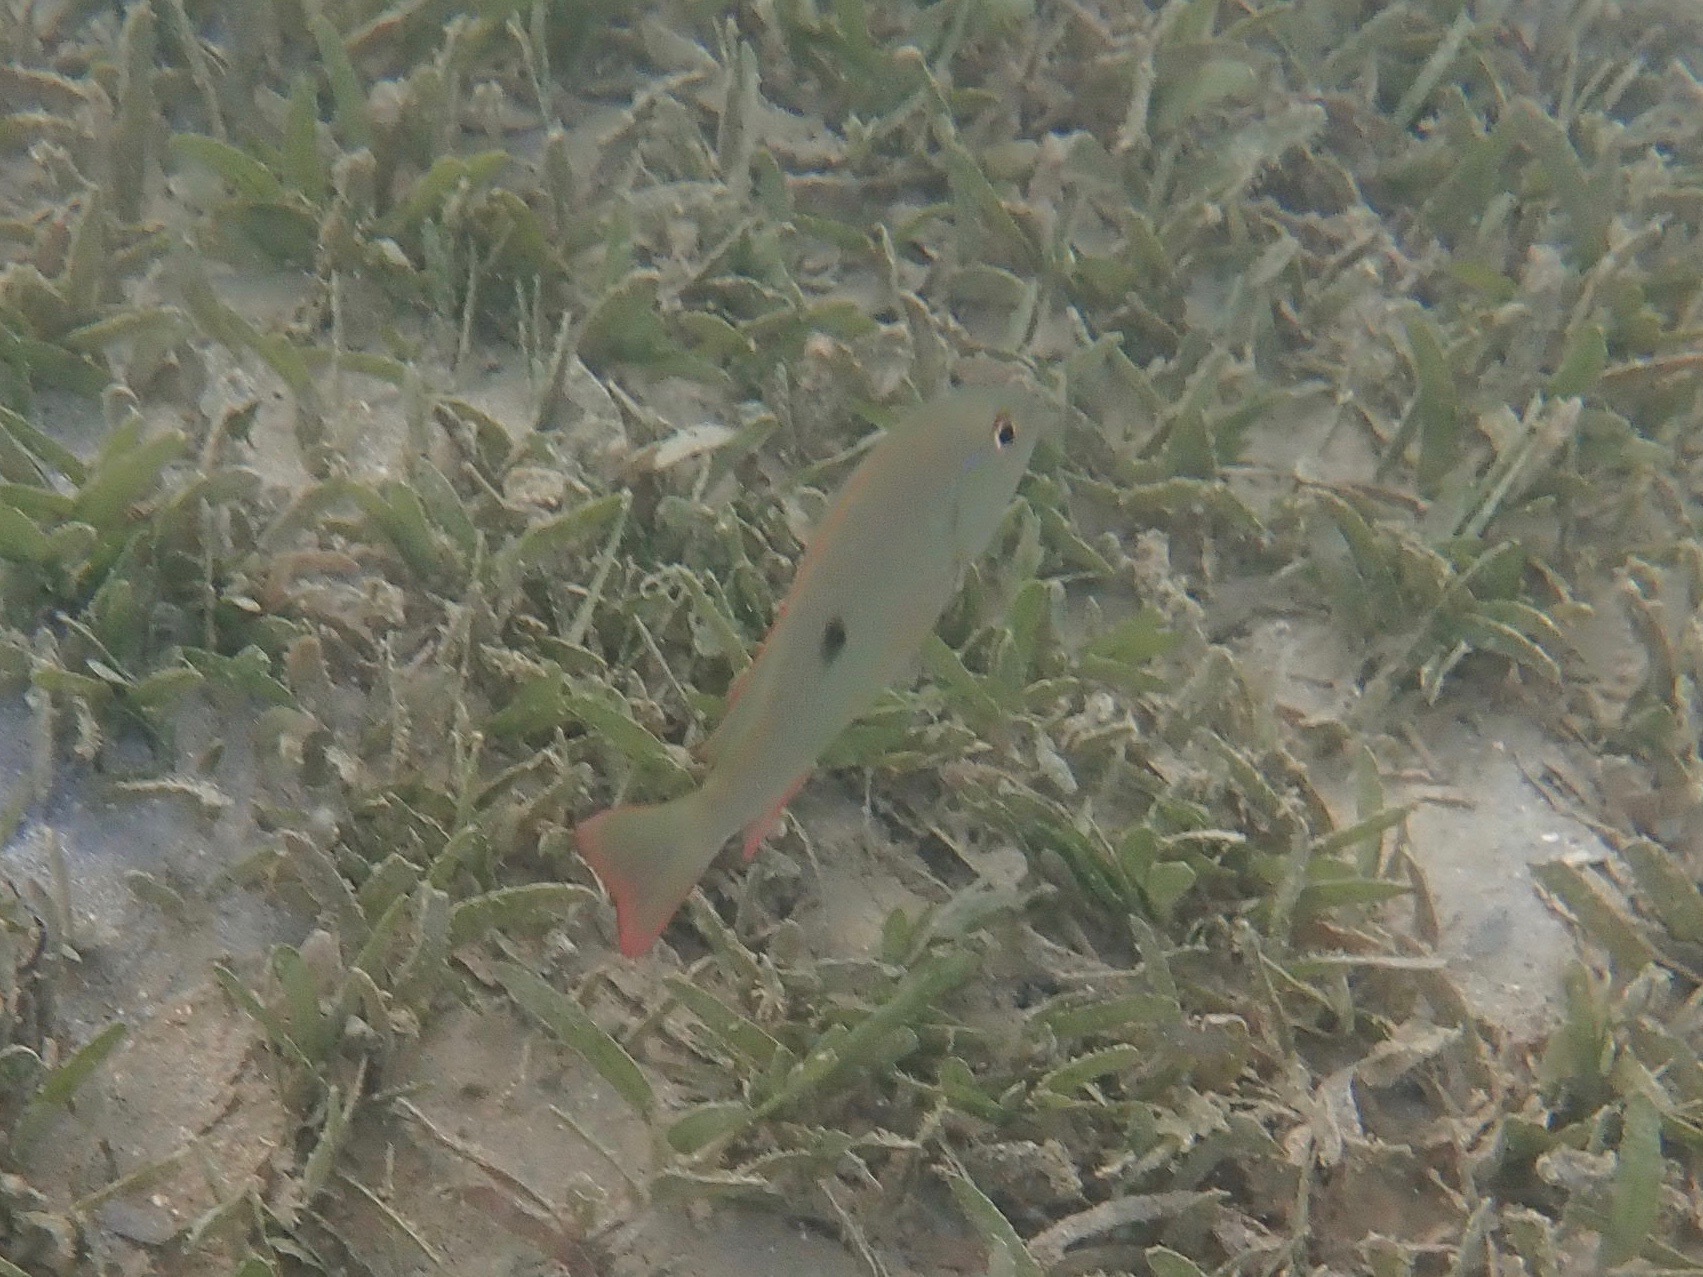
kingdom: Animalia
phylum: Chordata
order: Perciformes
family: Lutjanidae
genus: Lutjanus
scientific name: Lutjanus analis
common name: Mutton snapper
